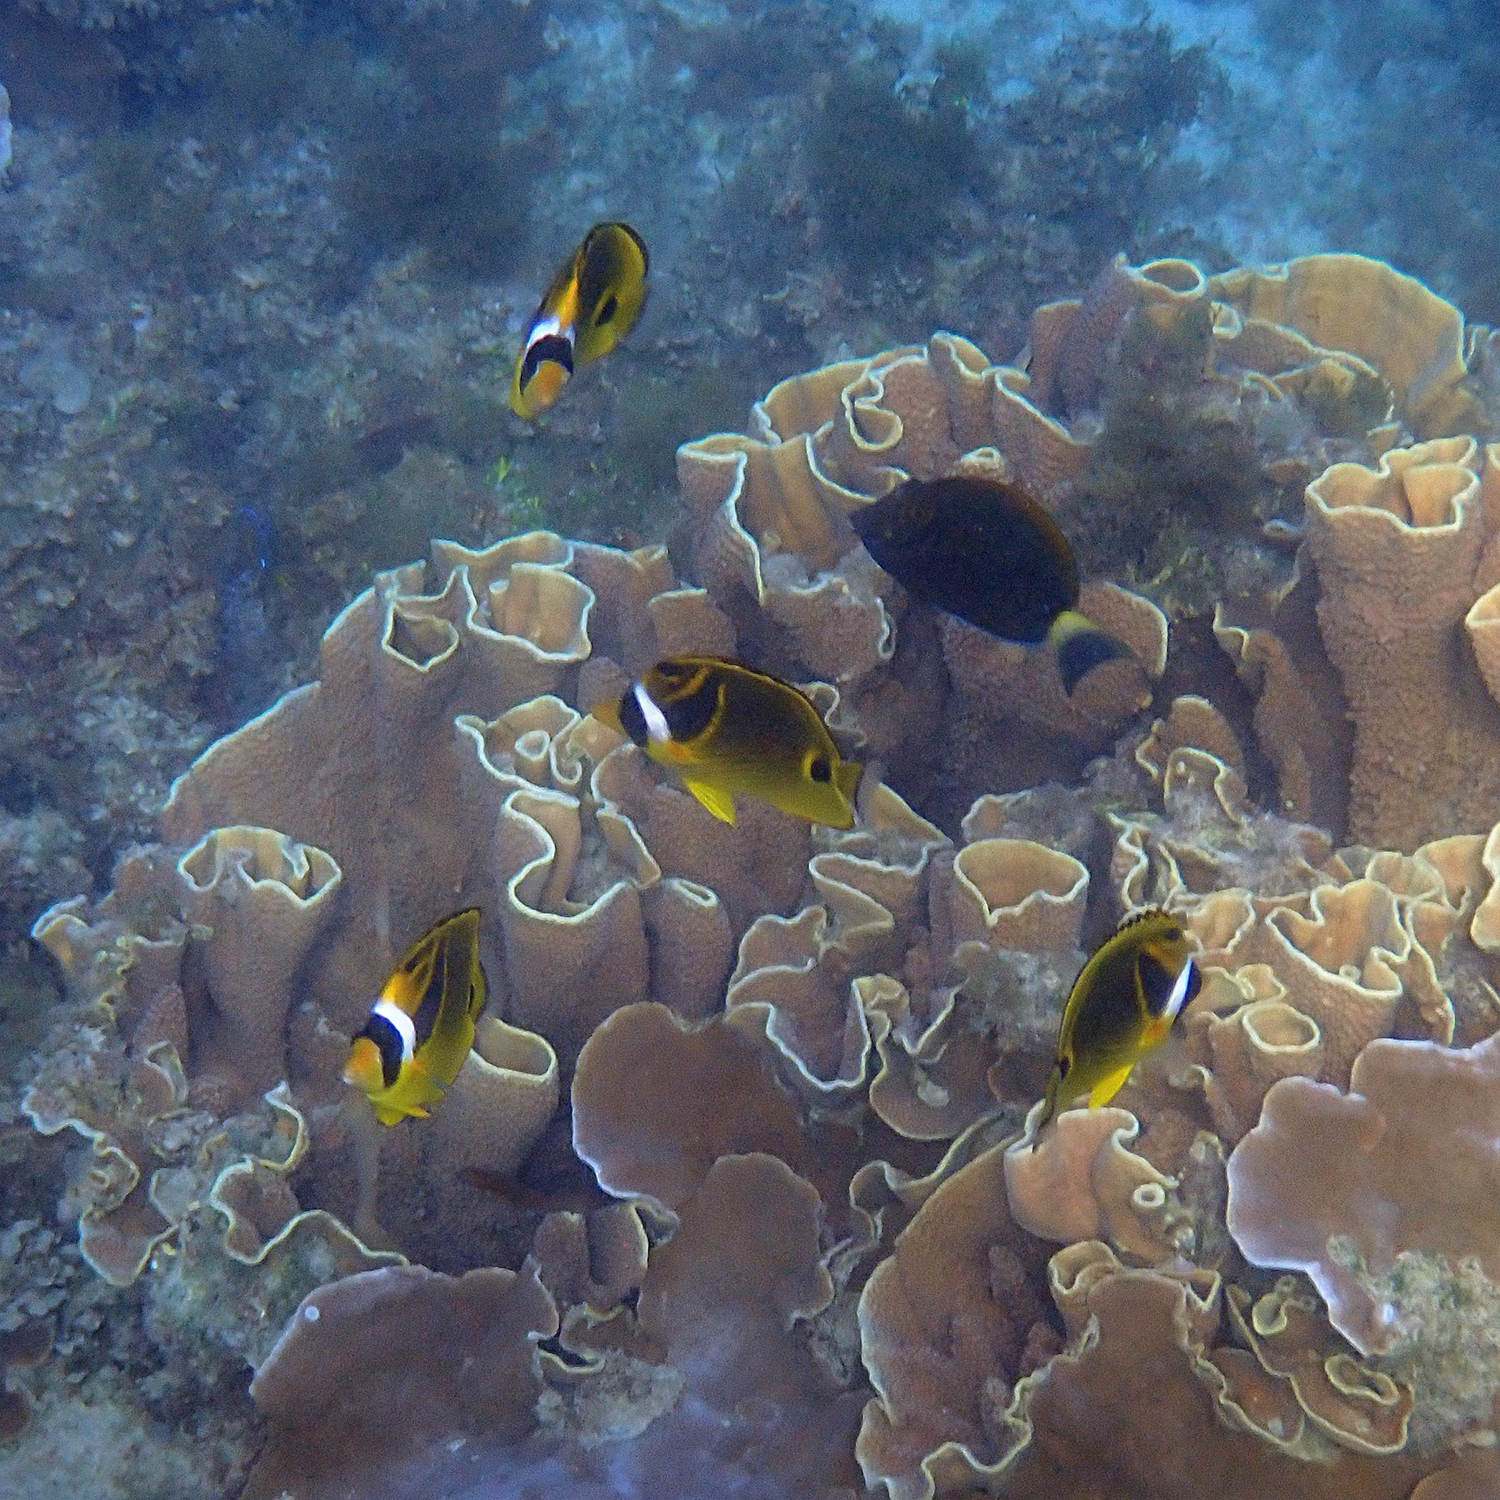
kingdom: Animalia
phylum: Chordata
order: Perciformes
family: Chaetodontidae
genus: Chaetodon
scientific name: Chaetodon lunula
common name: Raccoon butterflyfish
